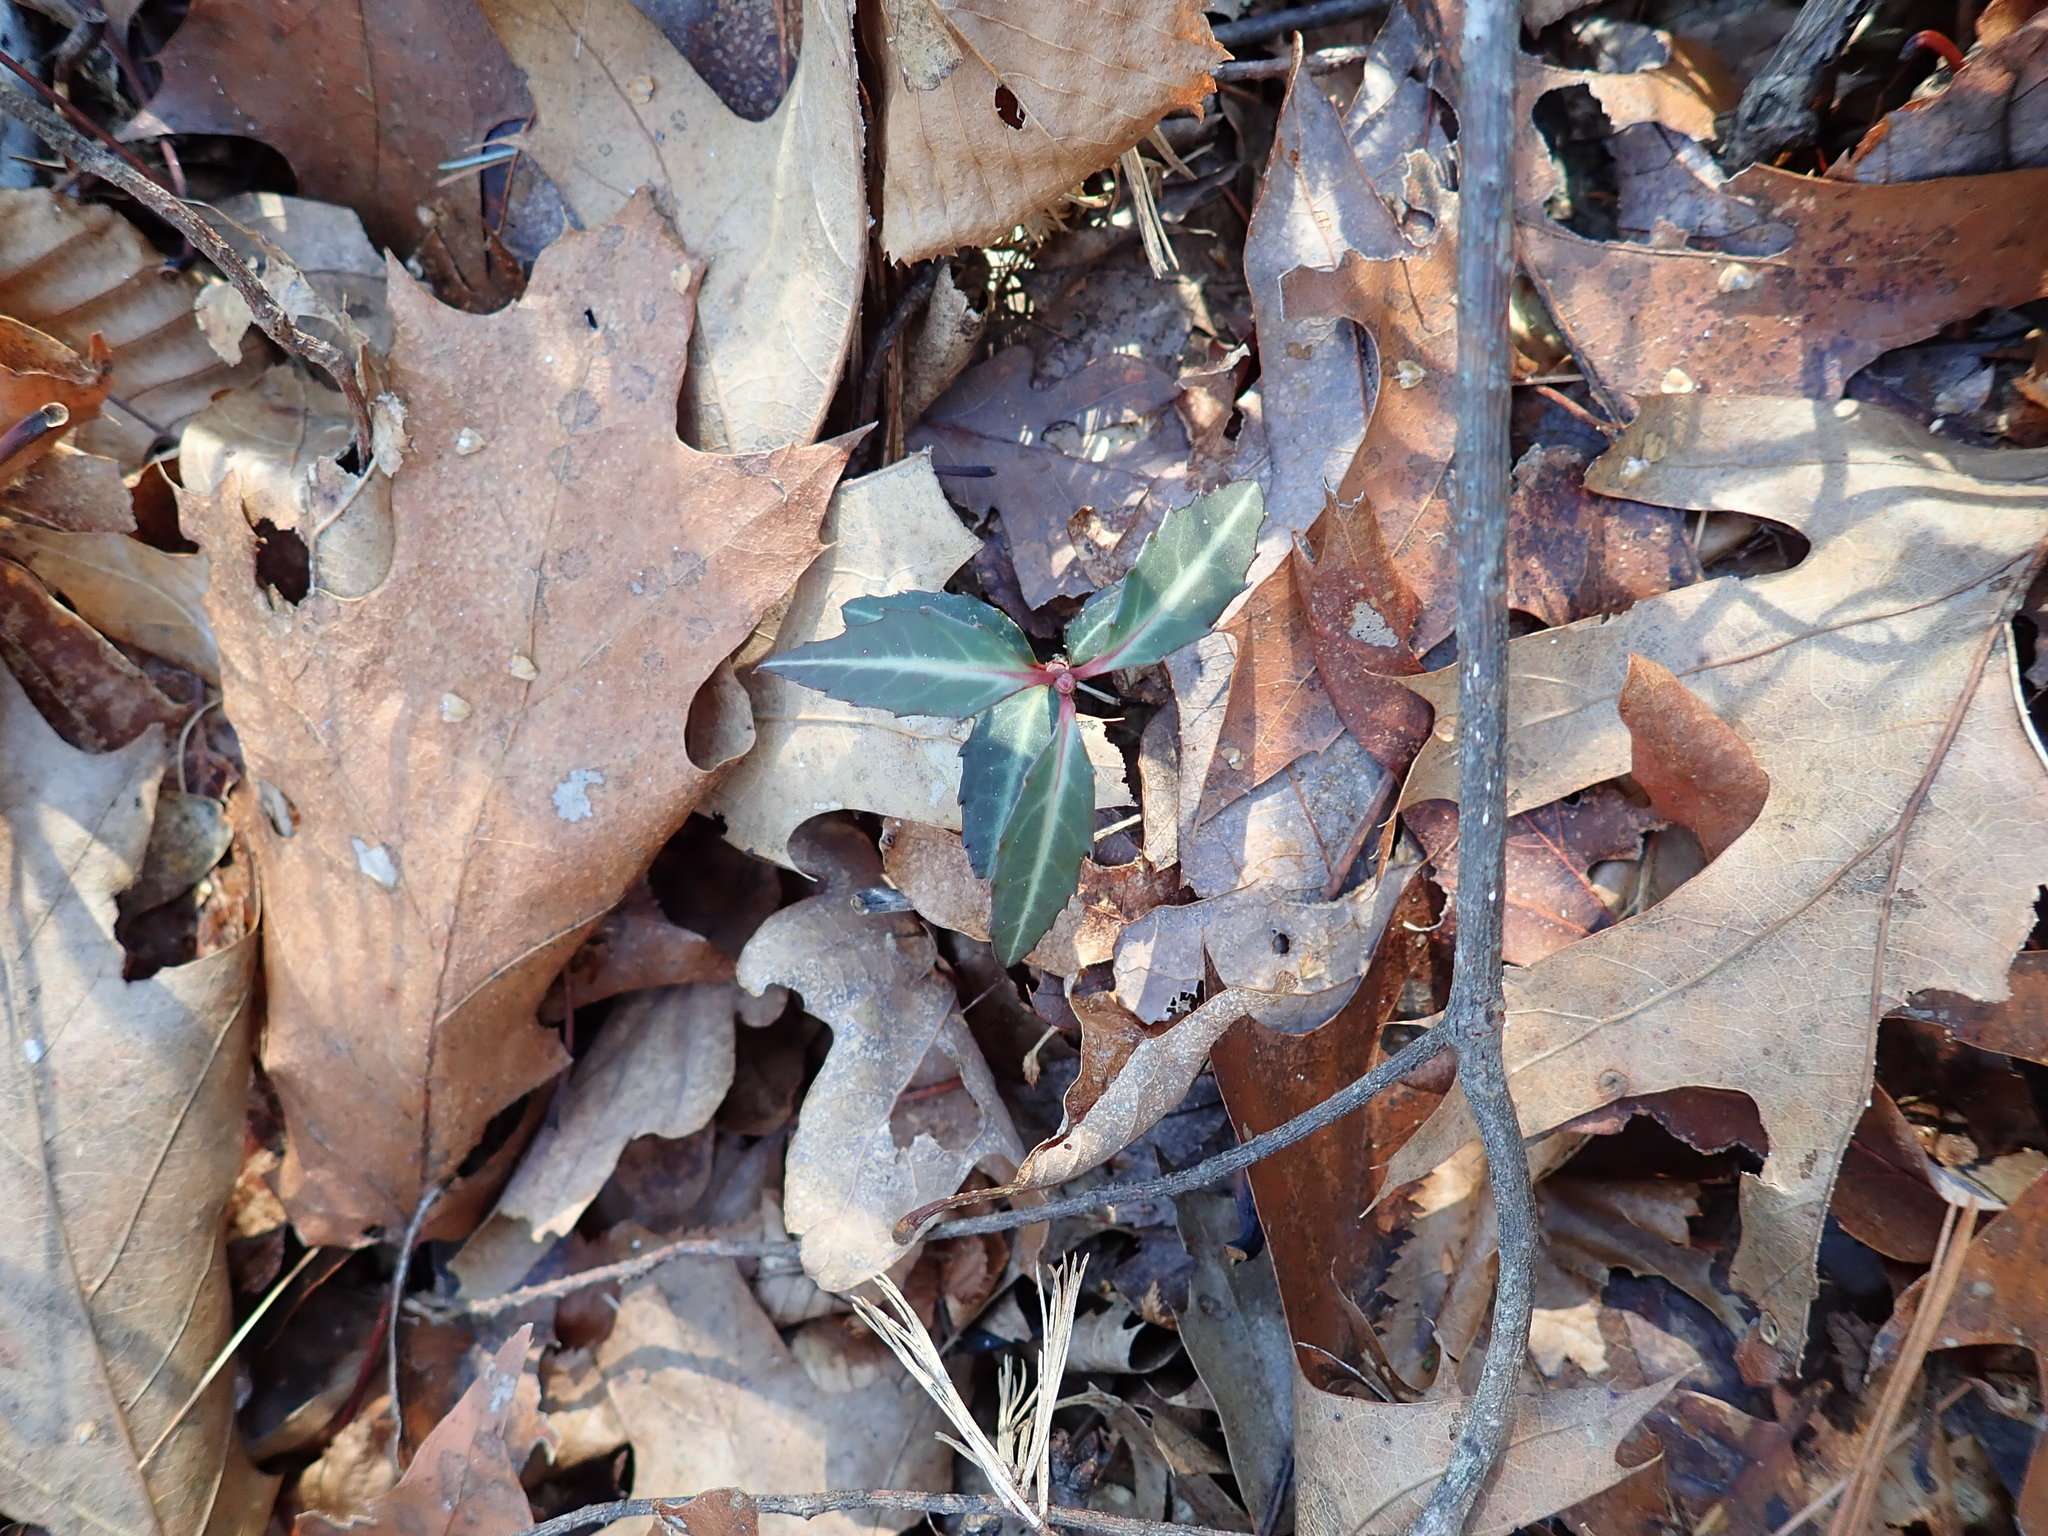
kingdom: Plantae
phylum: Tracheophyta
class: Magnoliopsida
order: Ericales
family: Ericaceae
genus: Chimaphila
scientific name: Chimaphila maculata
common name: Spotted pipsissewa
